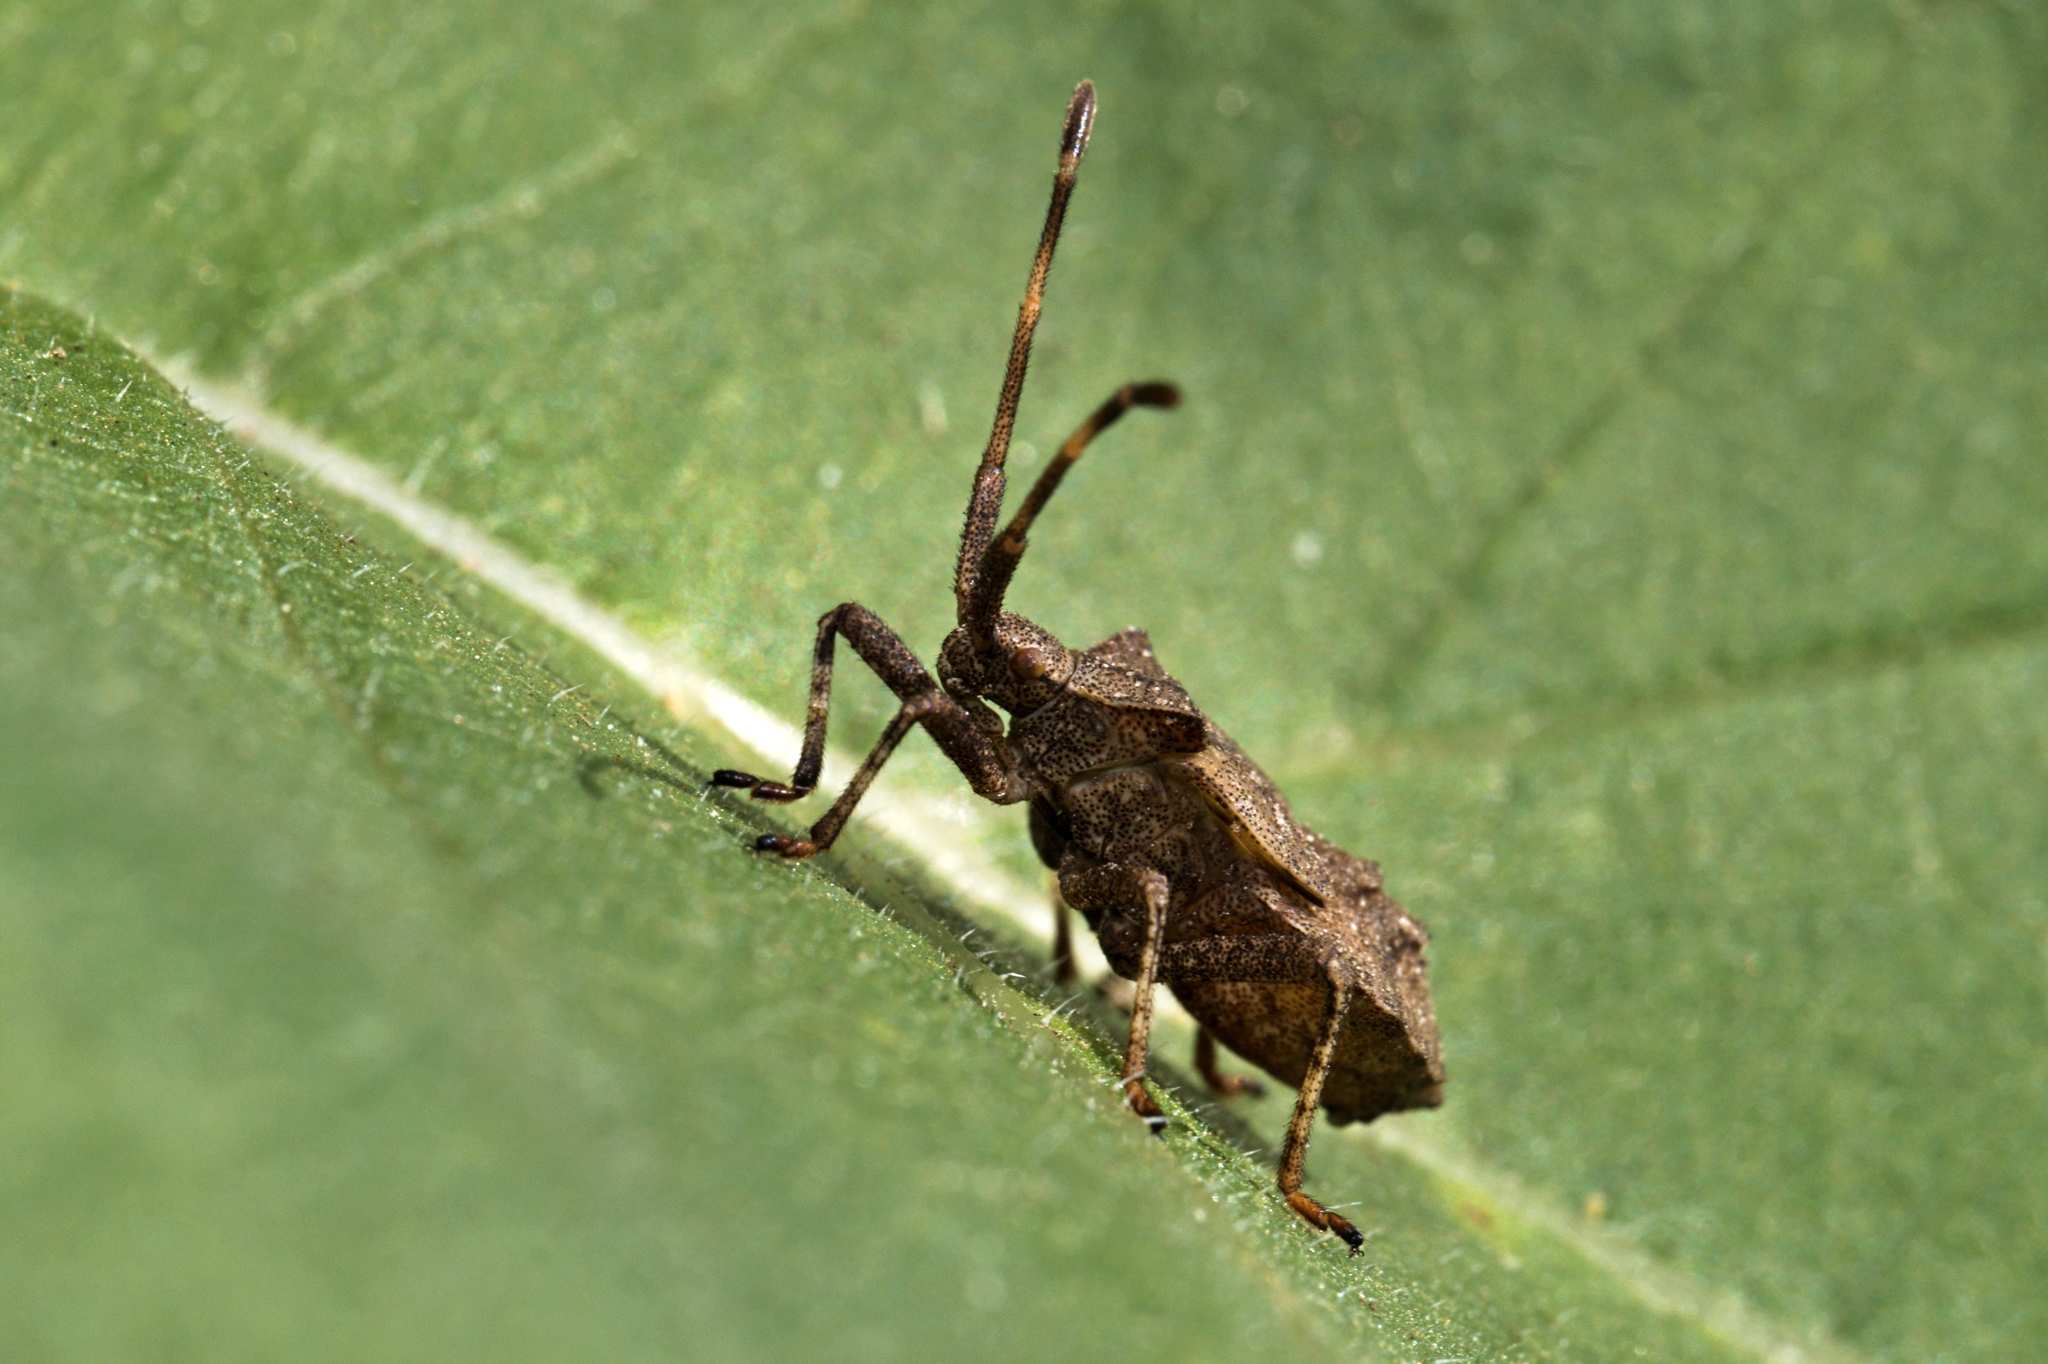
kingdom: Animalia
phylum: Arthropoda
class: Insecta
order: Hemiptera
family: Coreidae
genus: Coreus
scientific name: Coreus marginatus
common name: Dock bug
